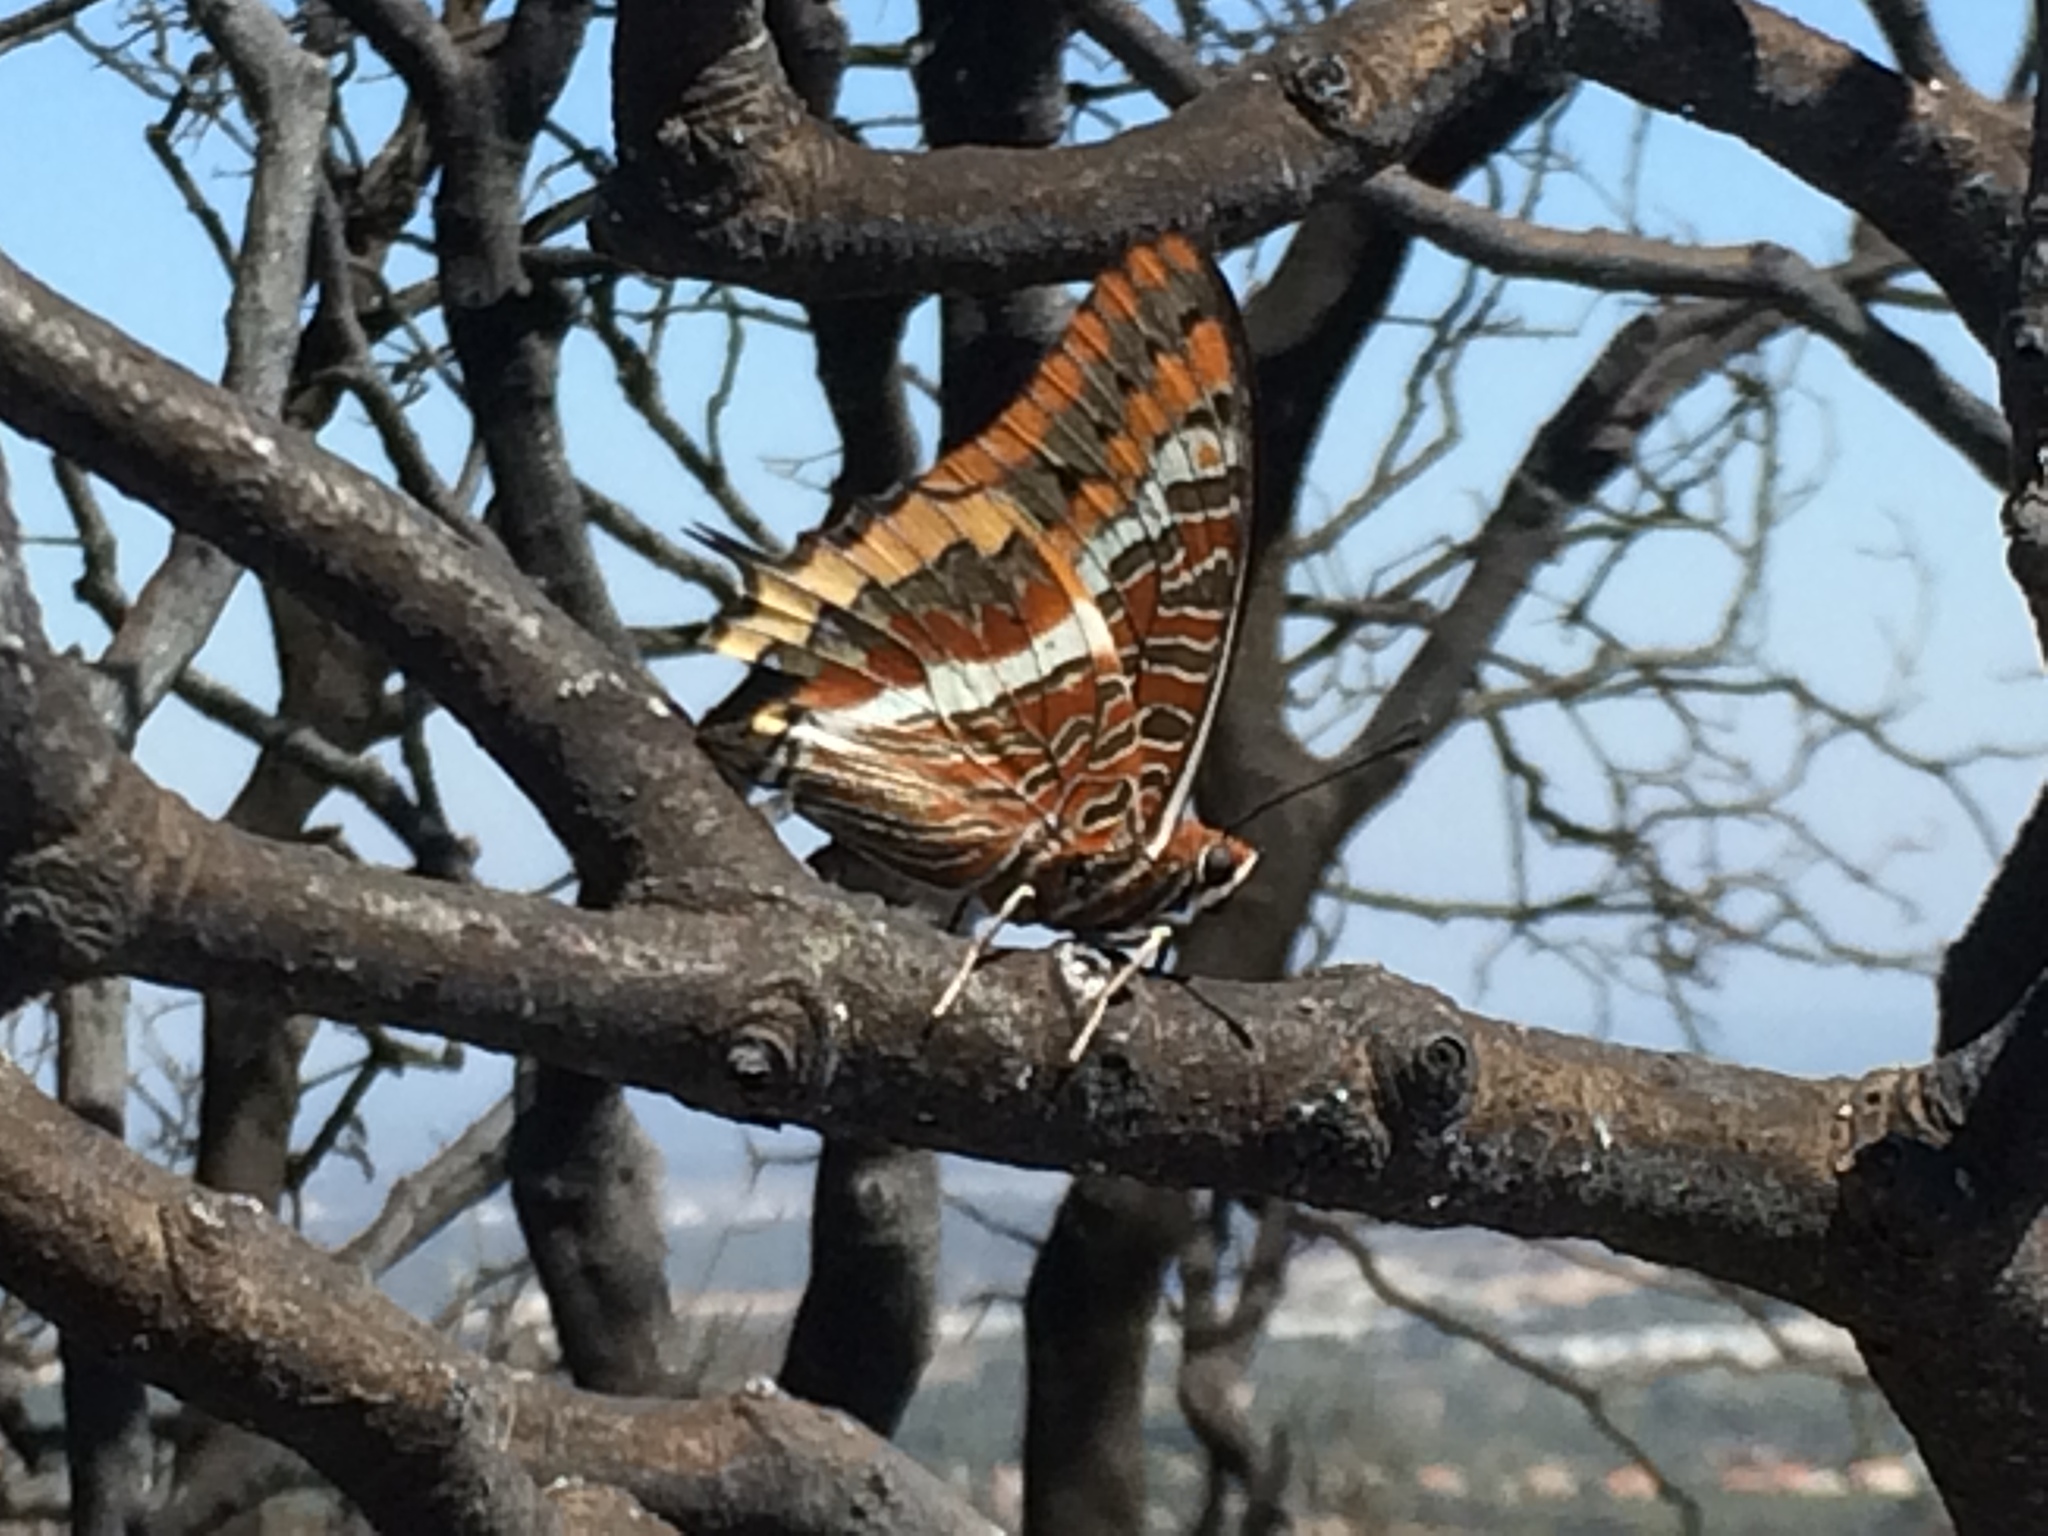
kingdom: Animalia
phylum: Arthropoda
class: Insecta
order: Lepidoptera
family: Nymphalidae
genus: Charaxes
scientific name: Charaxes jasius
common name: Two tailed pasha
